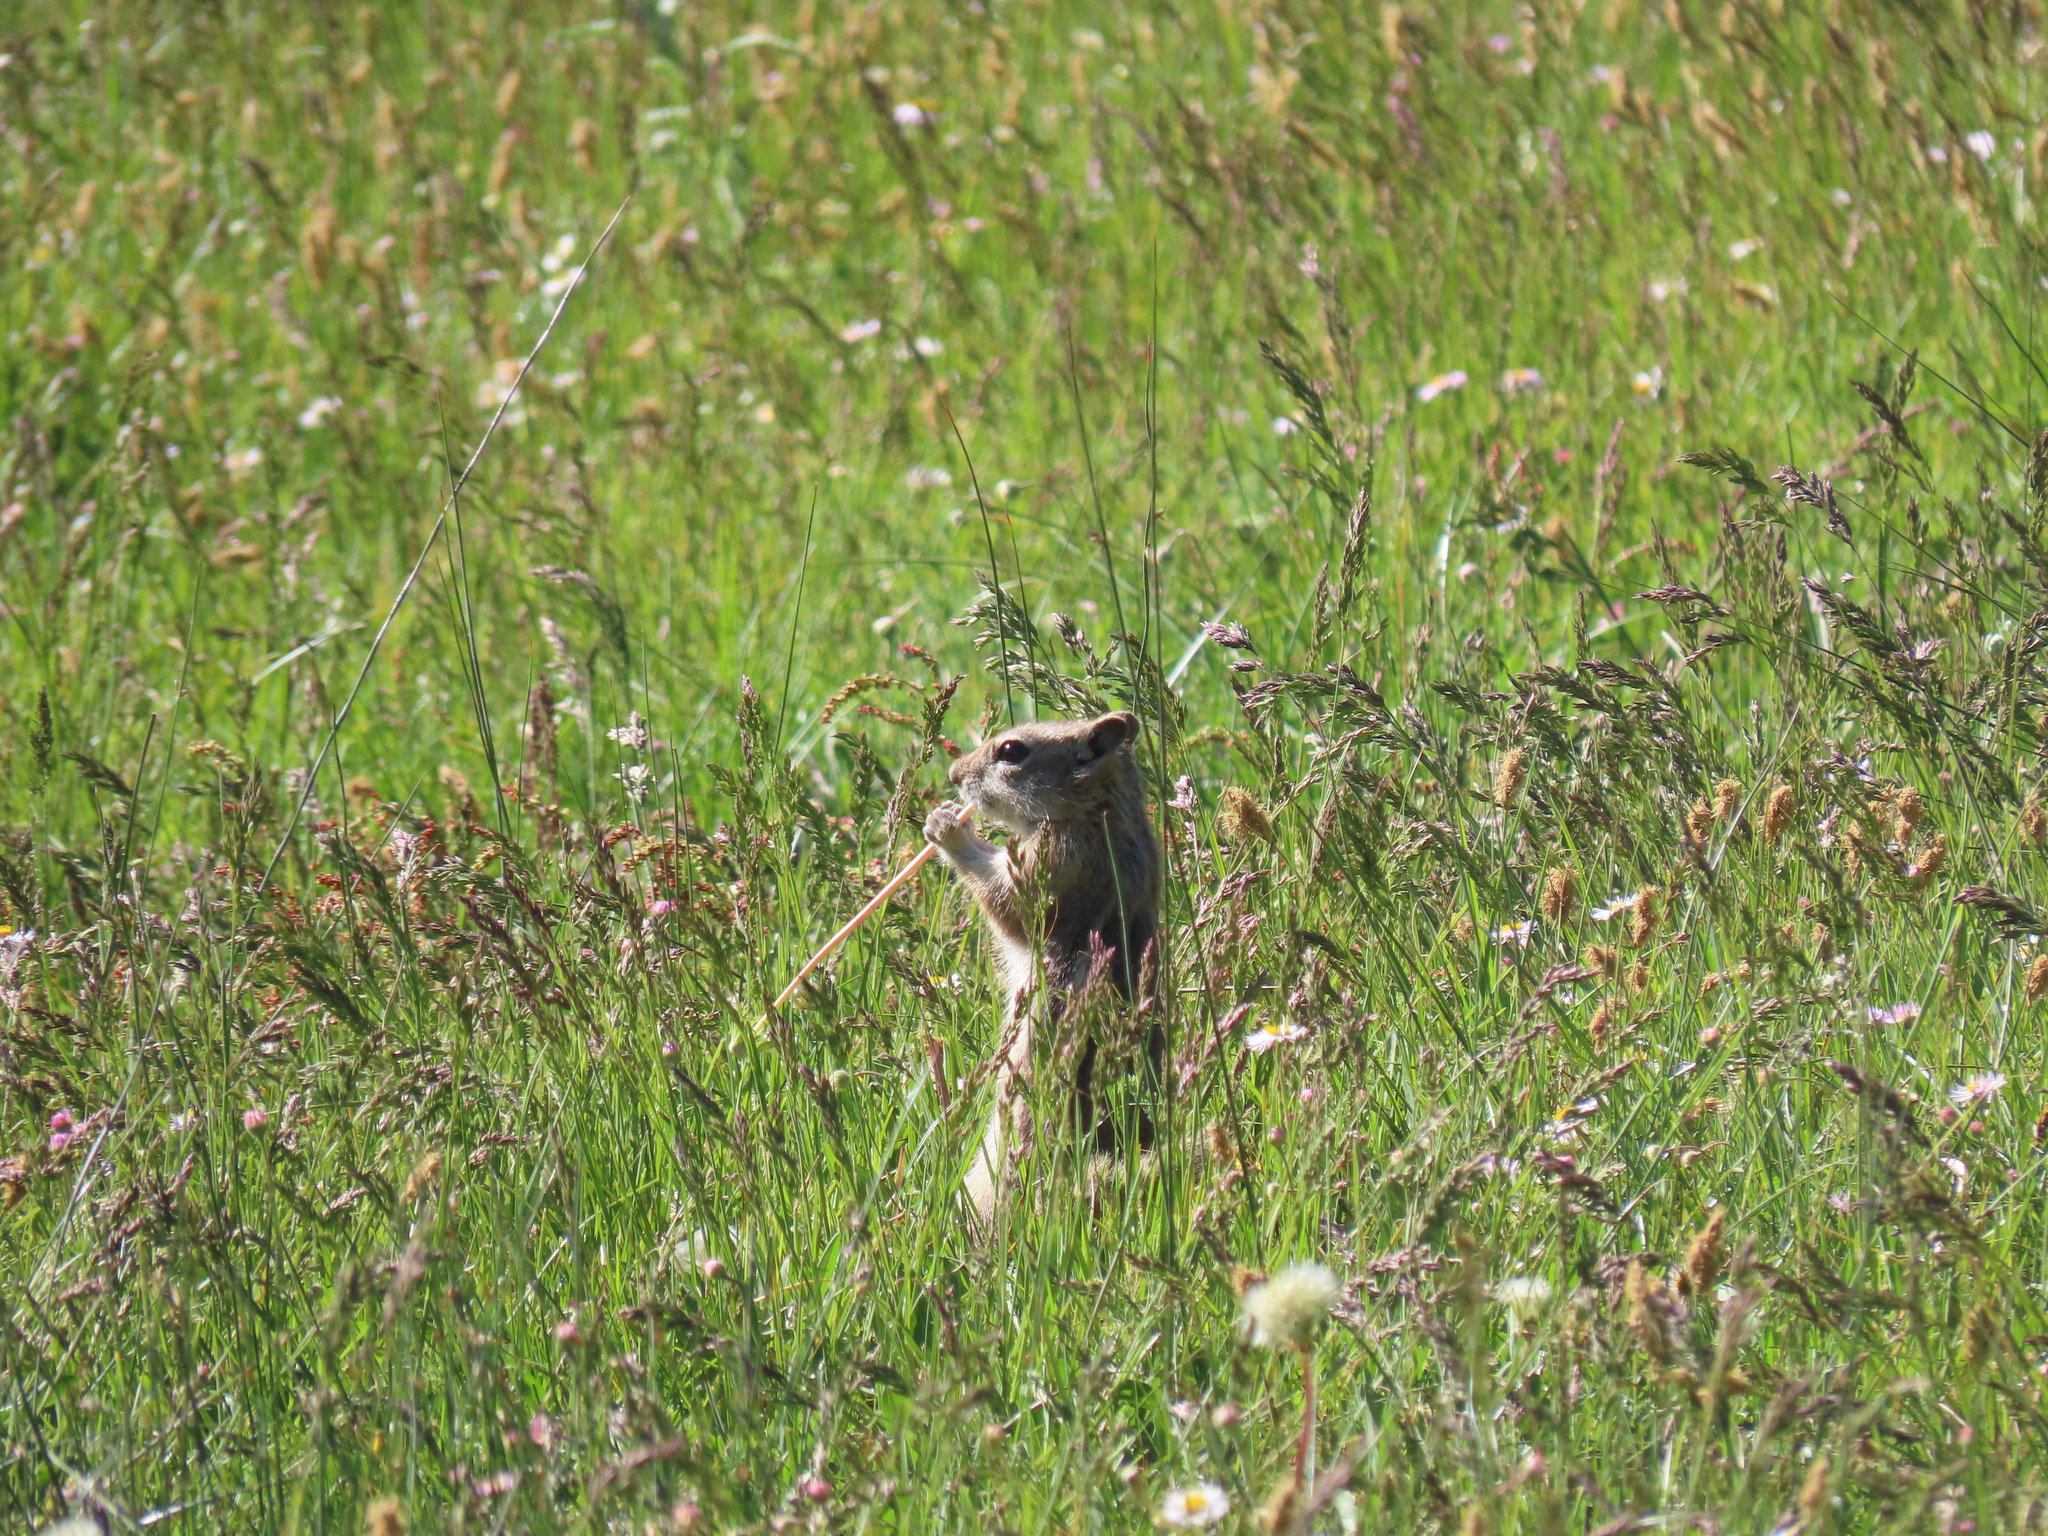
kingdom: Animalia
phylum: Chordata
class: Mammalia
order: Rodentia
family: Sciuridae
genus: Callospermophilus
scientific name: Callospermophilus lateralis
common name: Golden-mantled ground squirrel
